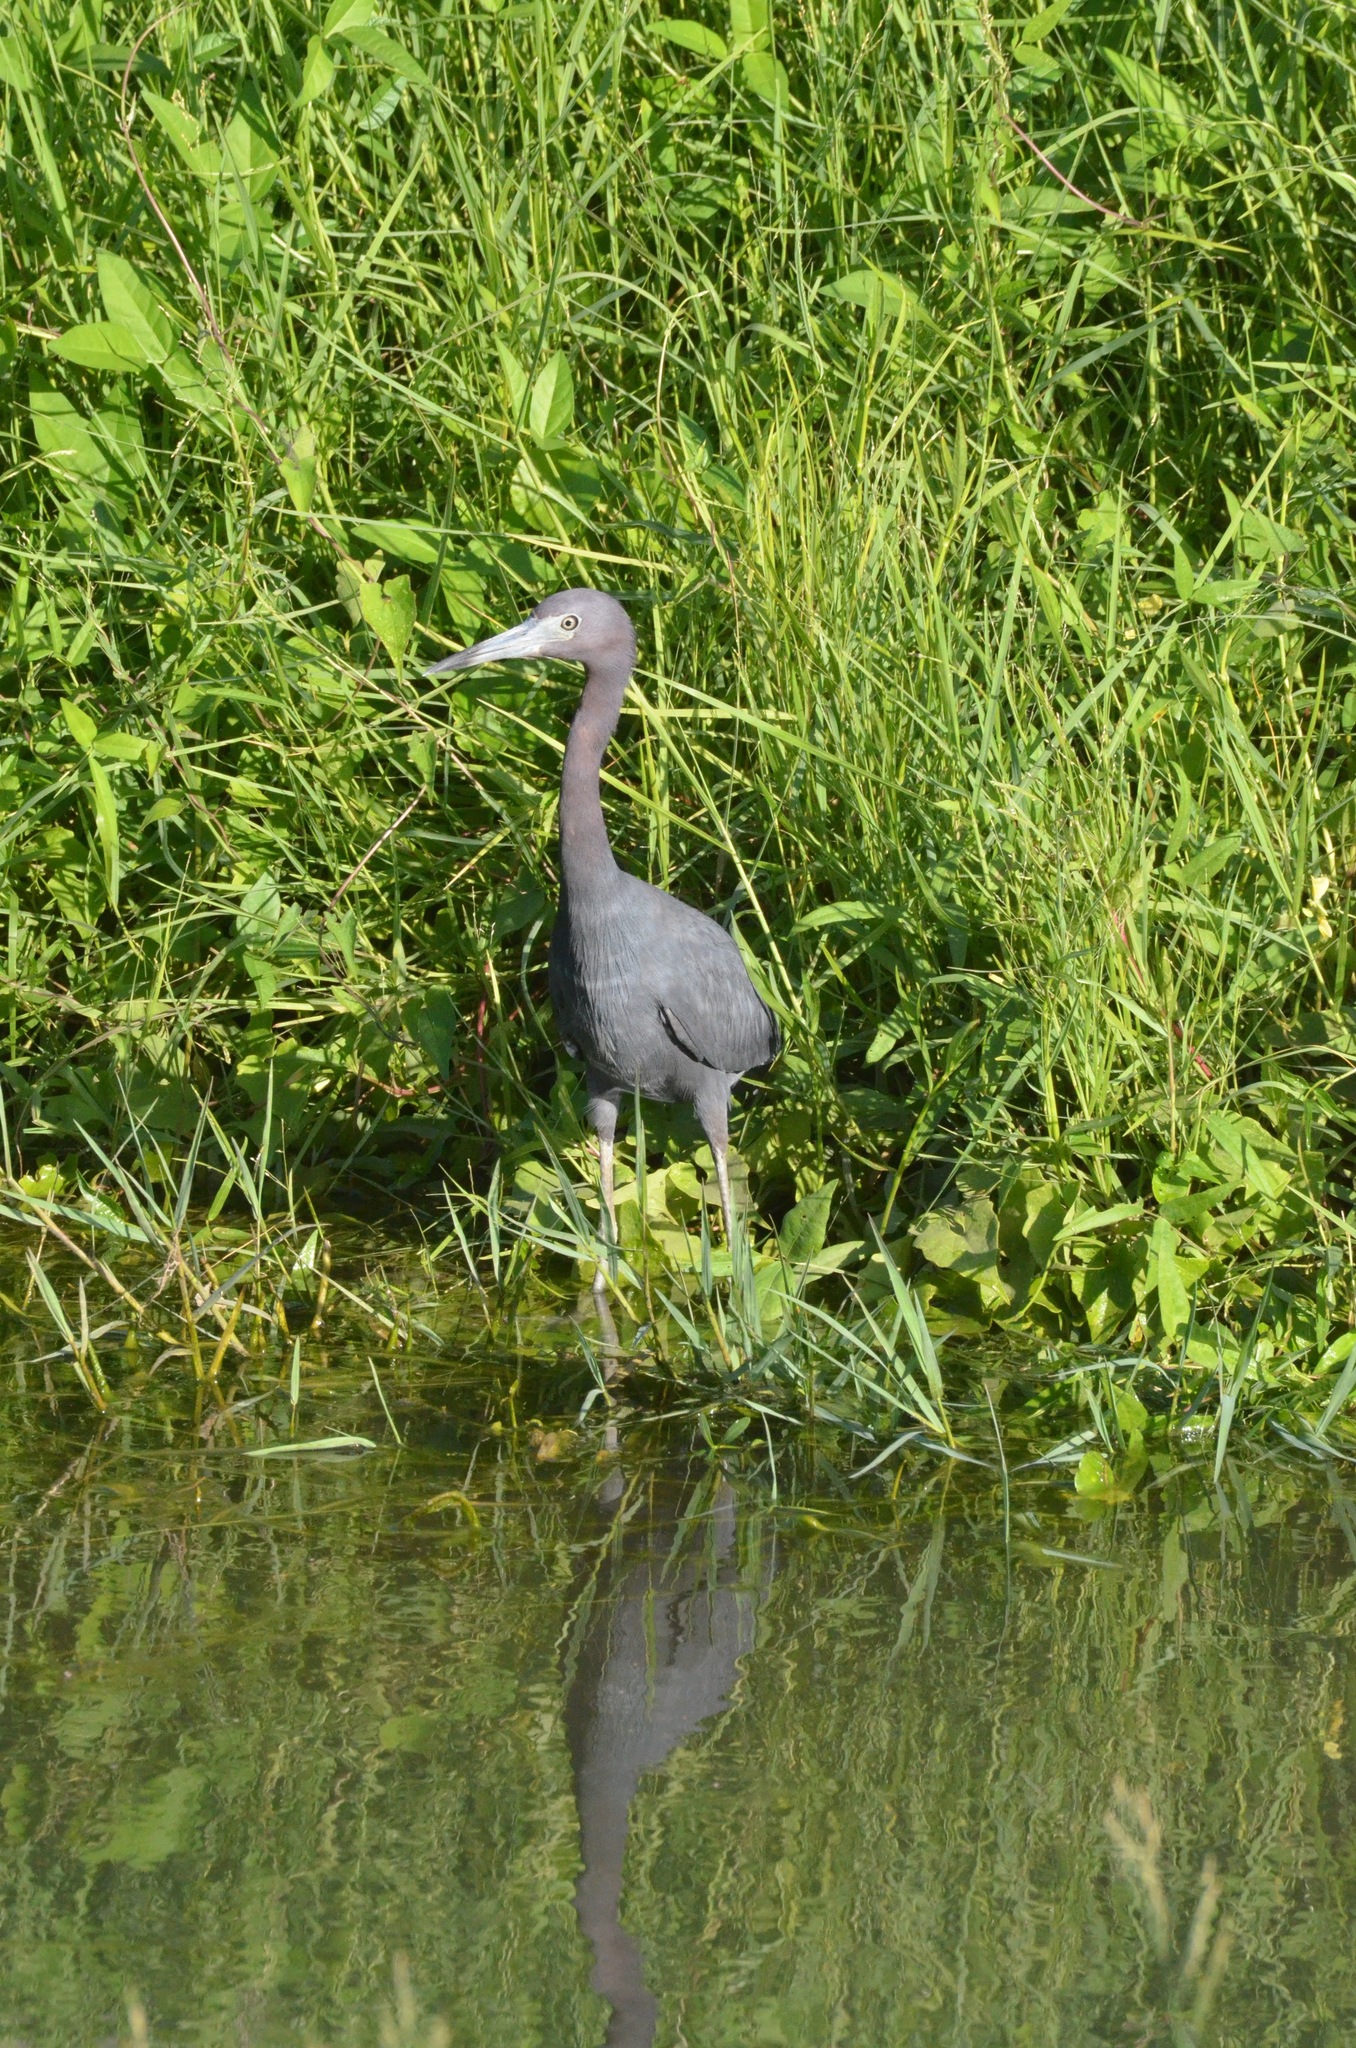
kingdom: Animalia
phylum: Chordata
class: Aves
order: Pelecaniformes
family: Ardeidae
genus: Egretta
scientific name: Egretta caerulea
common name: Little blue heron
